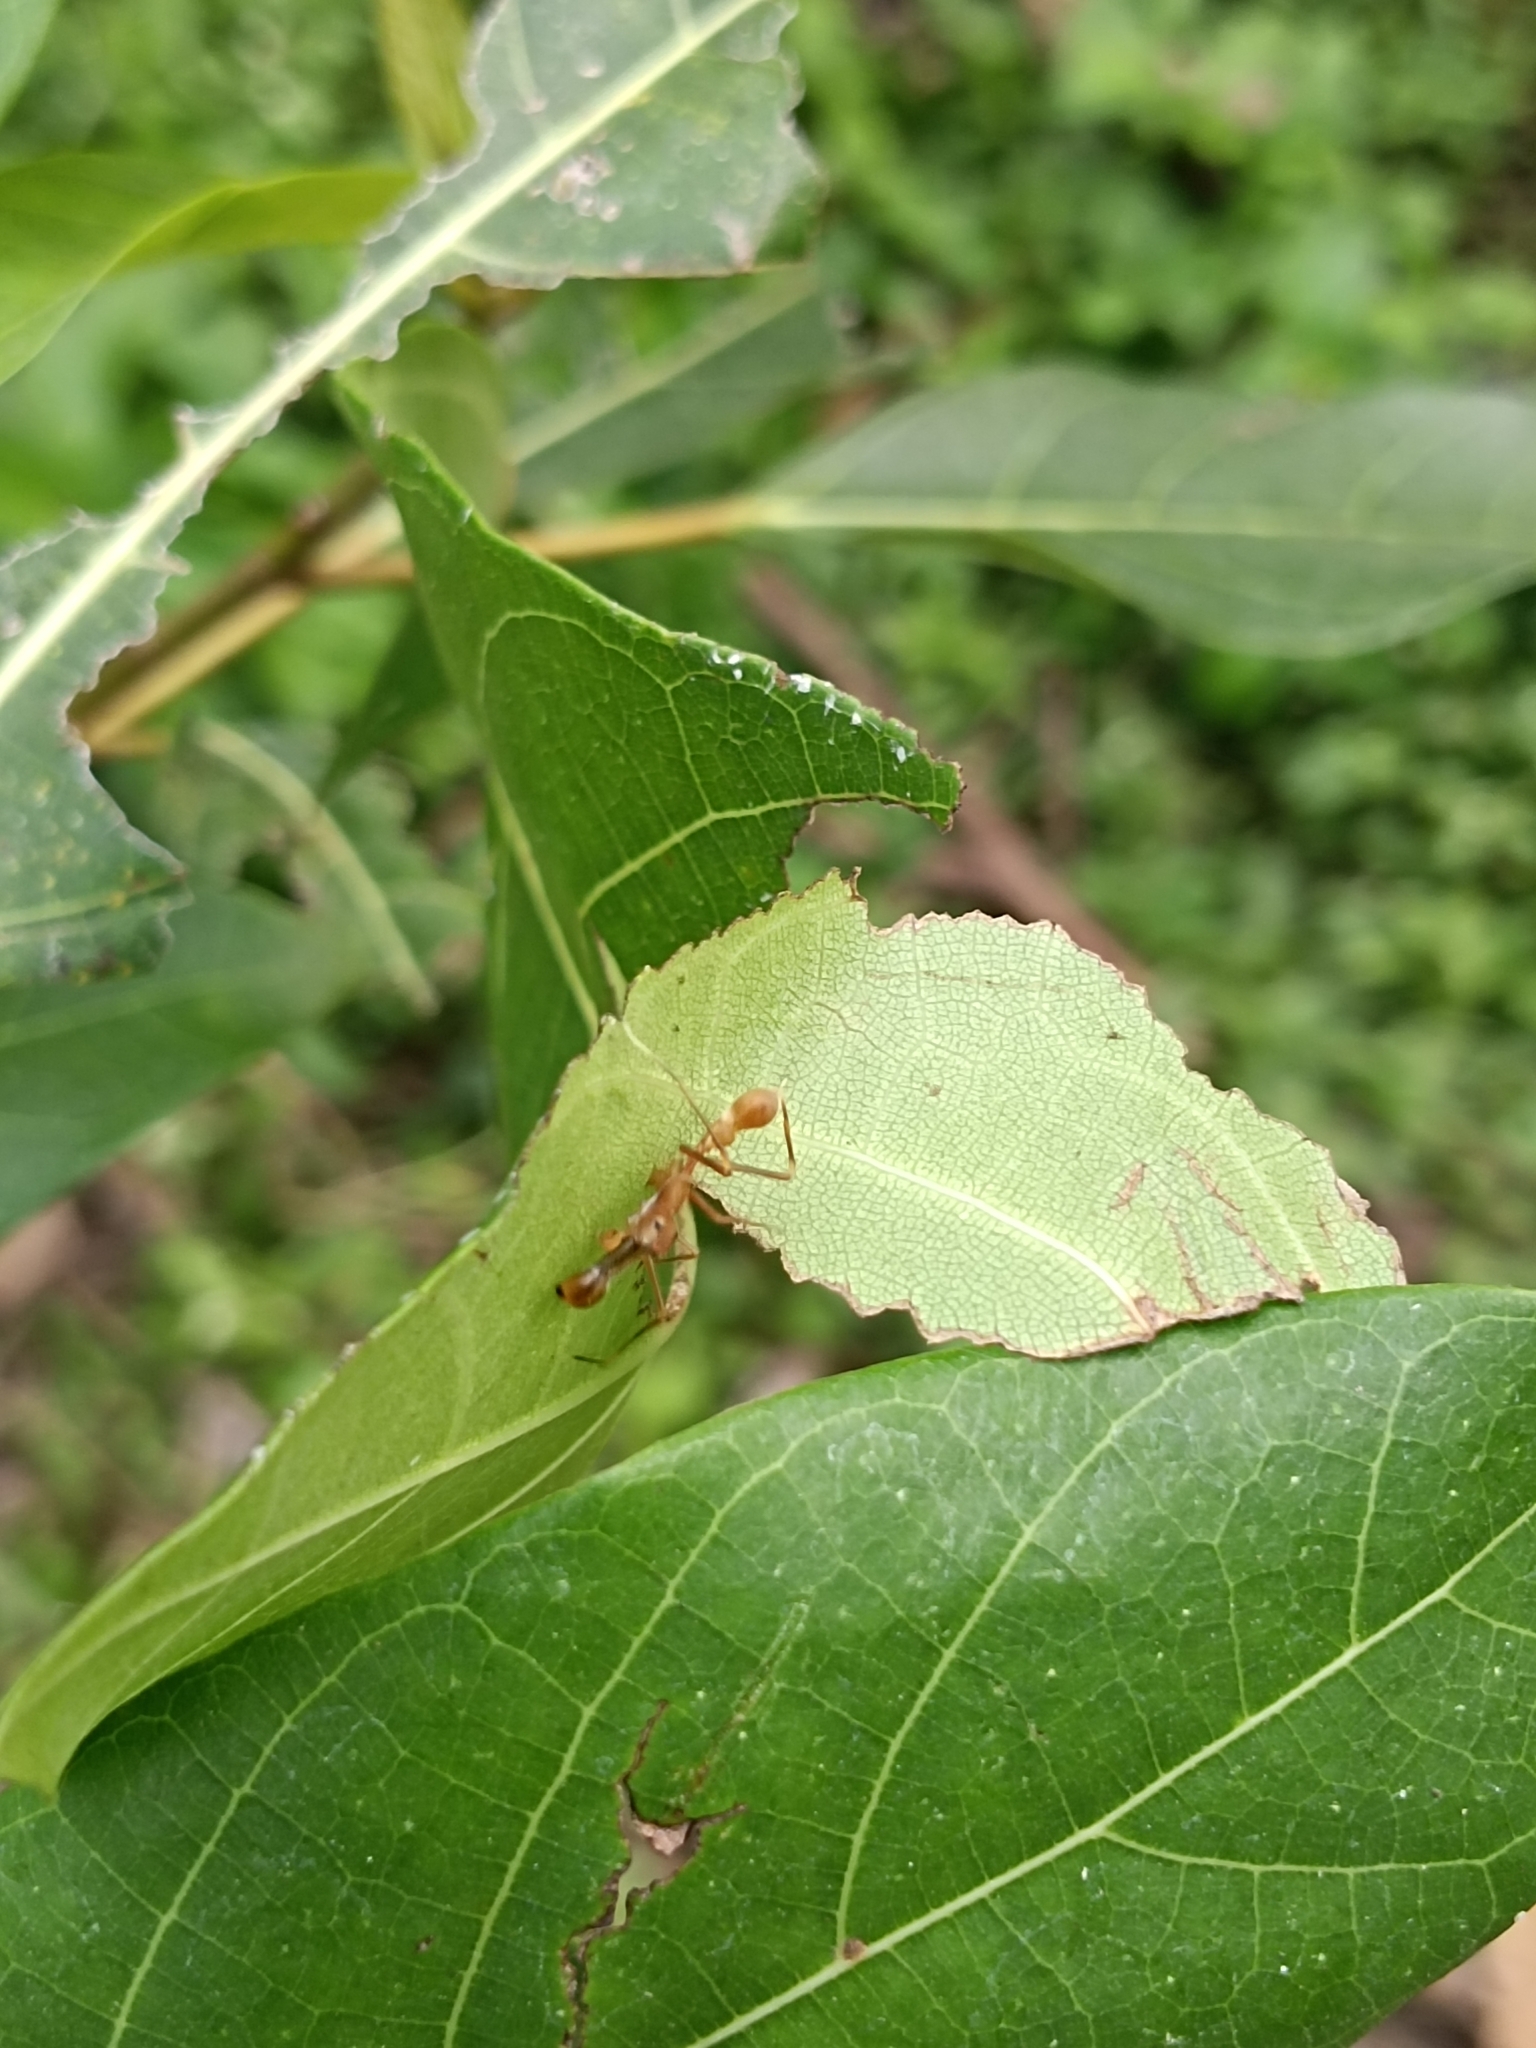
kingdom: Animalia
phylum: Arthropoda
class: Arachnida
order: Araneae
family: Salticidae
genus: Myrmaplata
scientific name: Myrmaplata plataleoides
